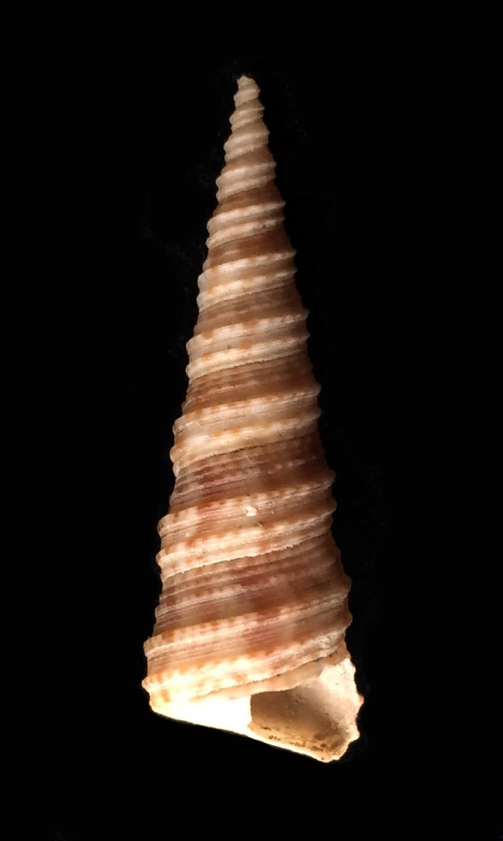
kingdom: Animalia
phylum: Mollusca
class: Gastropoda
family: Turritellidae
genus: Turritella
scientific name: Turritella turbona
